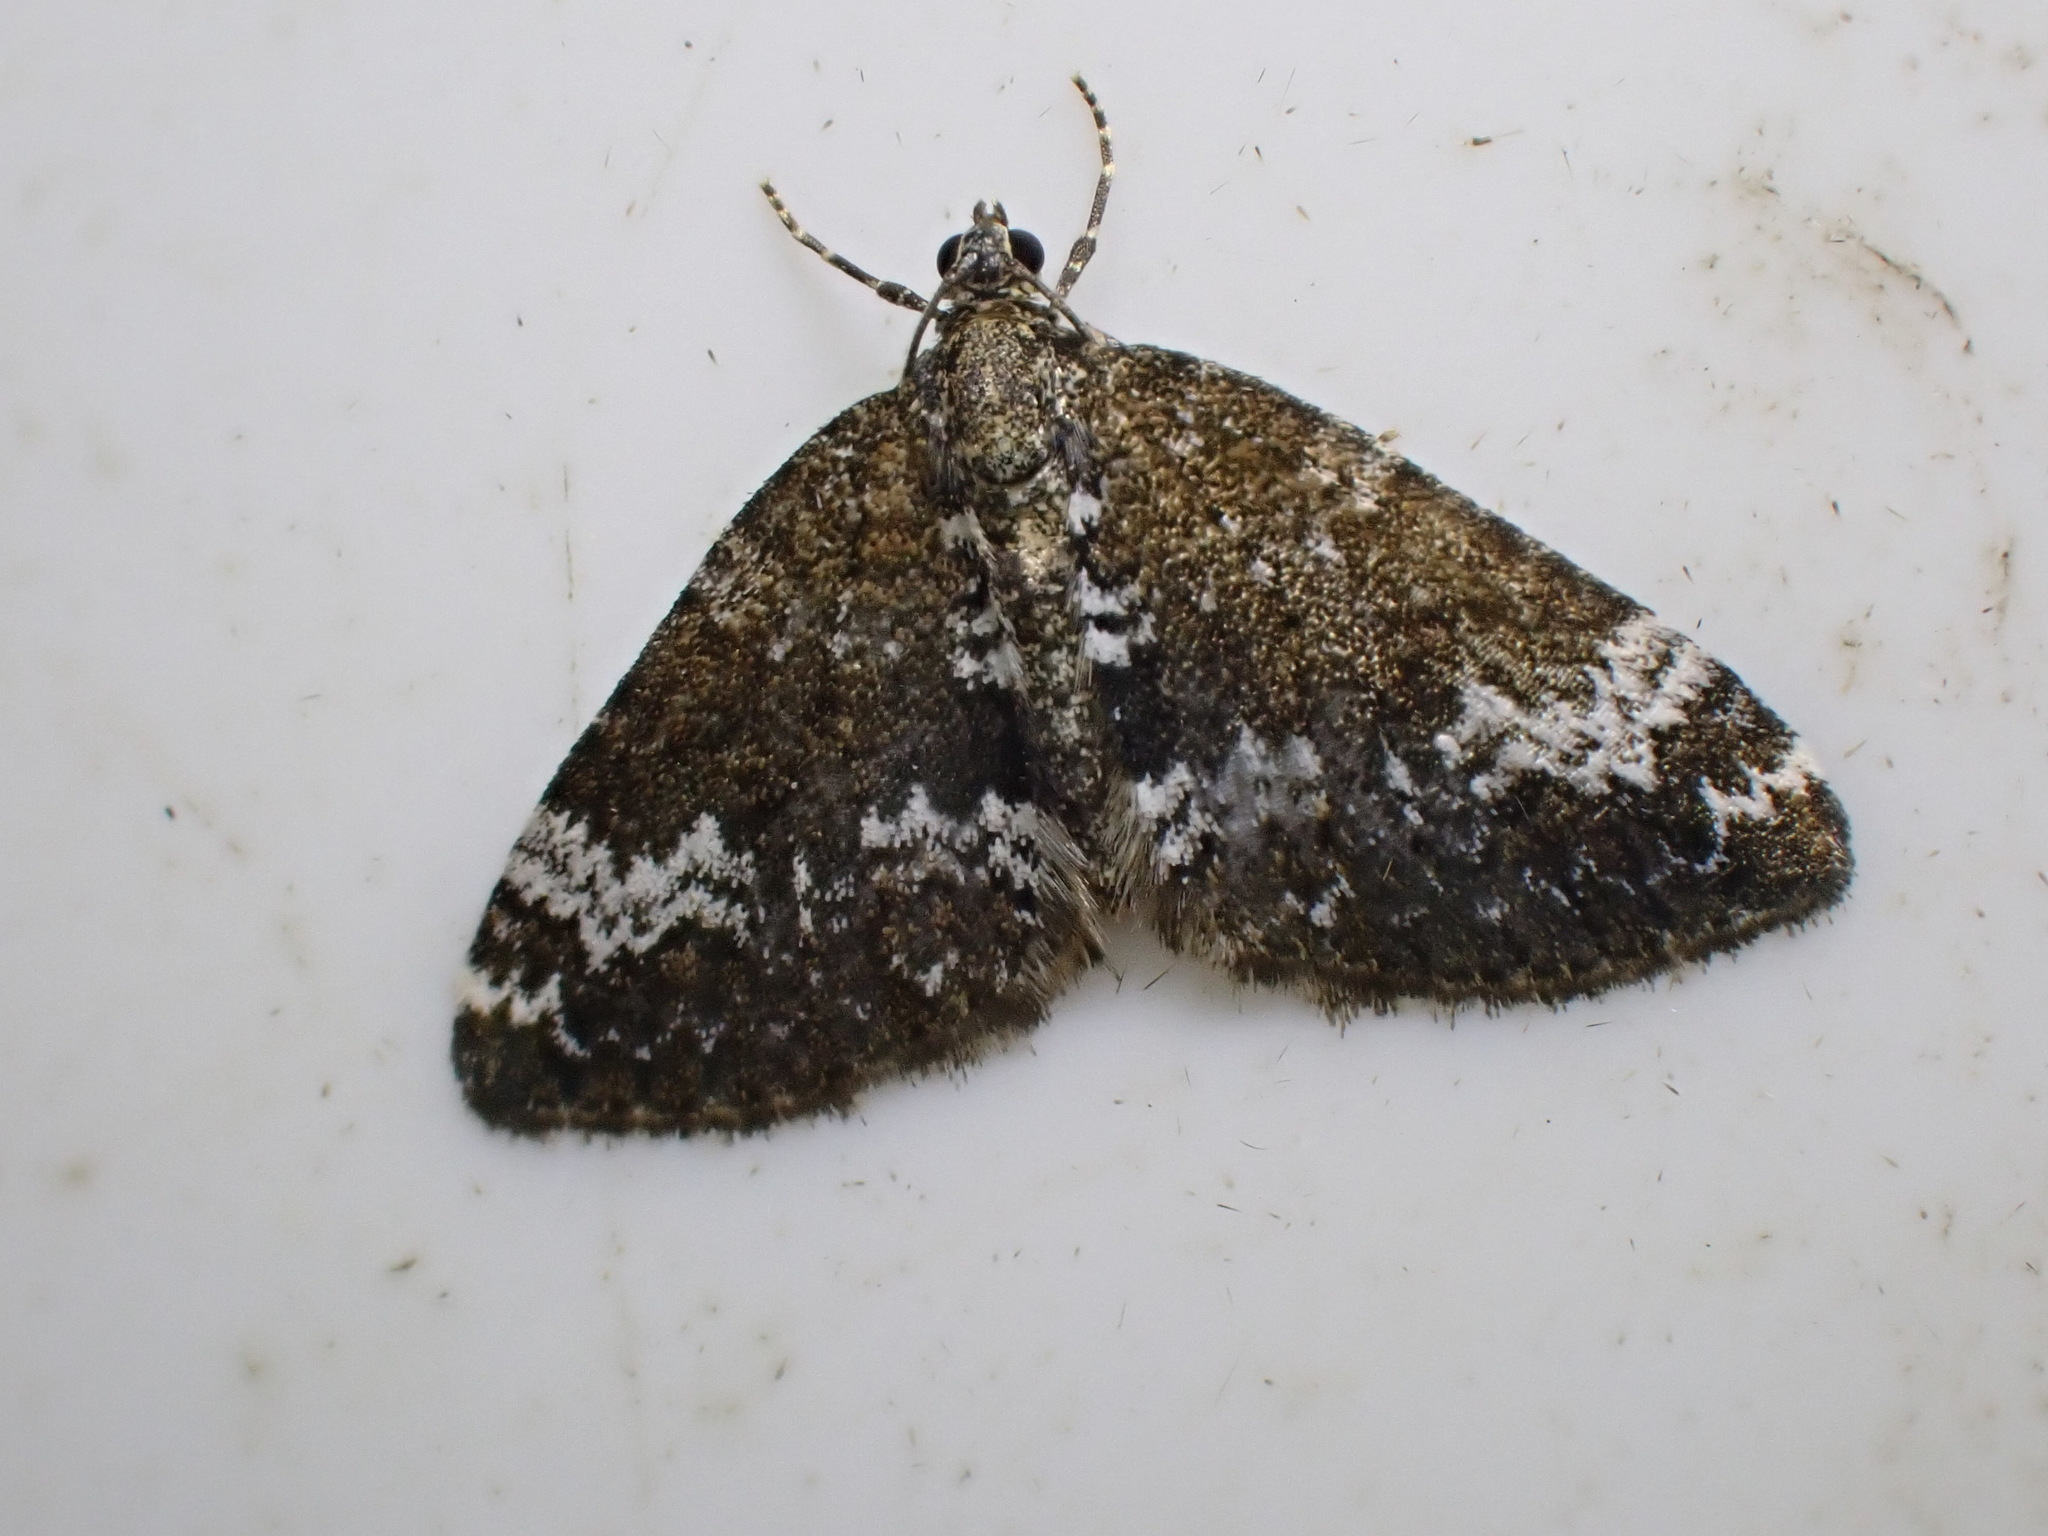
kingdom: Animalia
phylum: Arthropoda
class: Insecta
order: Lepidoptera
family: Geometridae
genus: Perizoma
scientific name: Perizoma alchemillata
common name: Small rivulet
